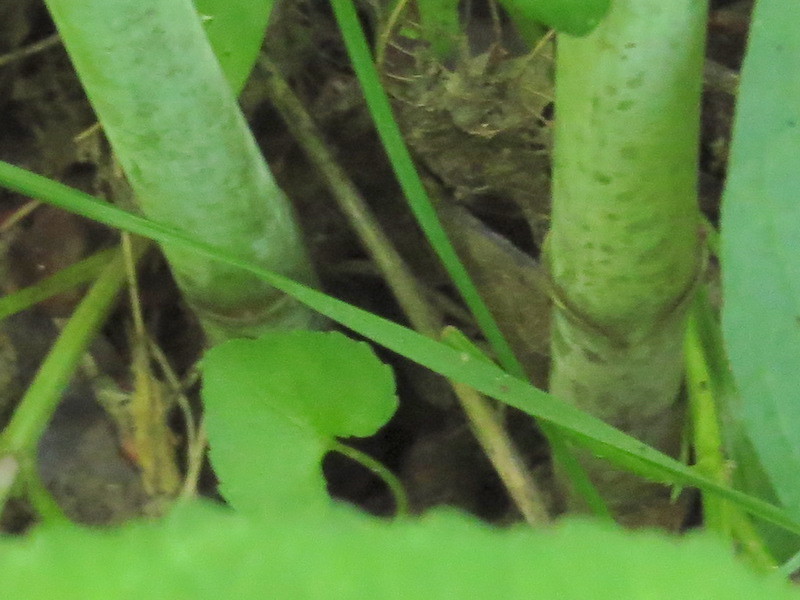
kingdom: Plantae
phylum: Tracheophyta
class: Magnoliopsida
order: Gentianales
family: Apocynaceae
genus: Asclepias
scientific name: Asclepias exaltata
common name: Poke milkweed
